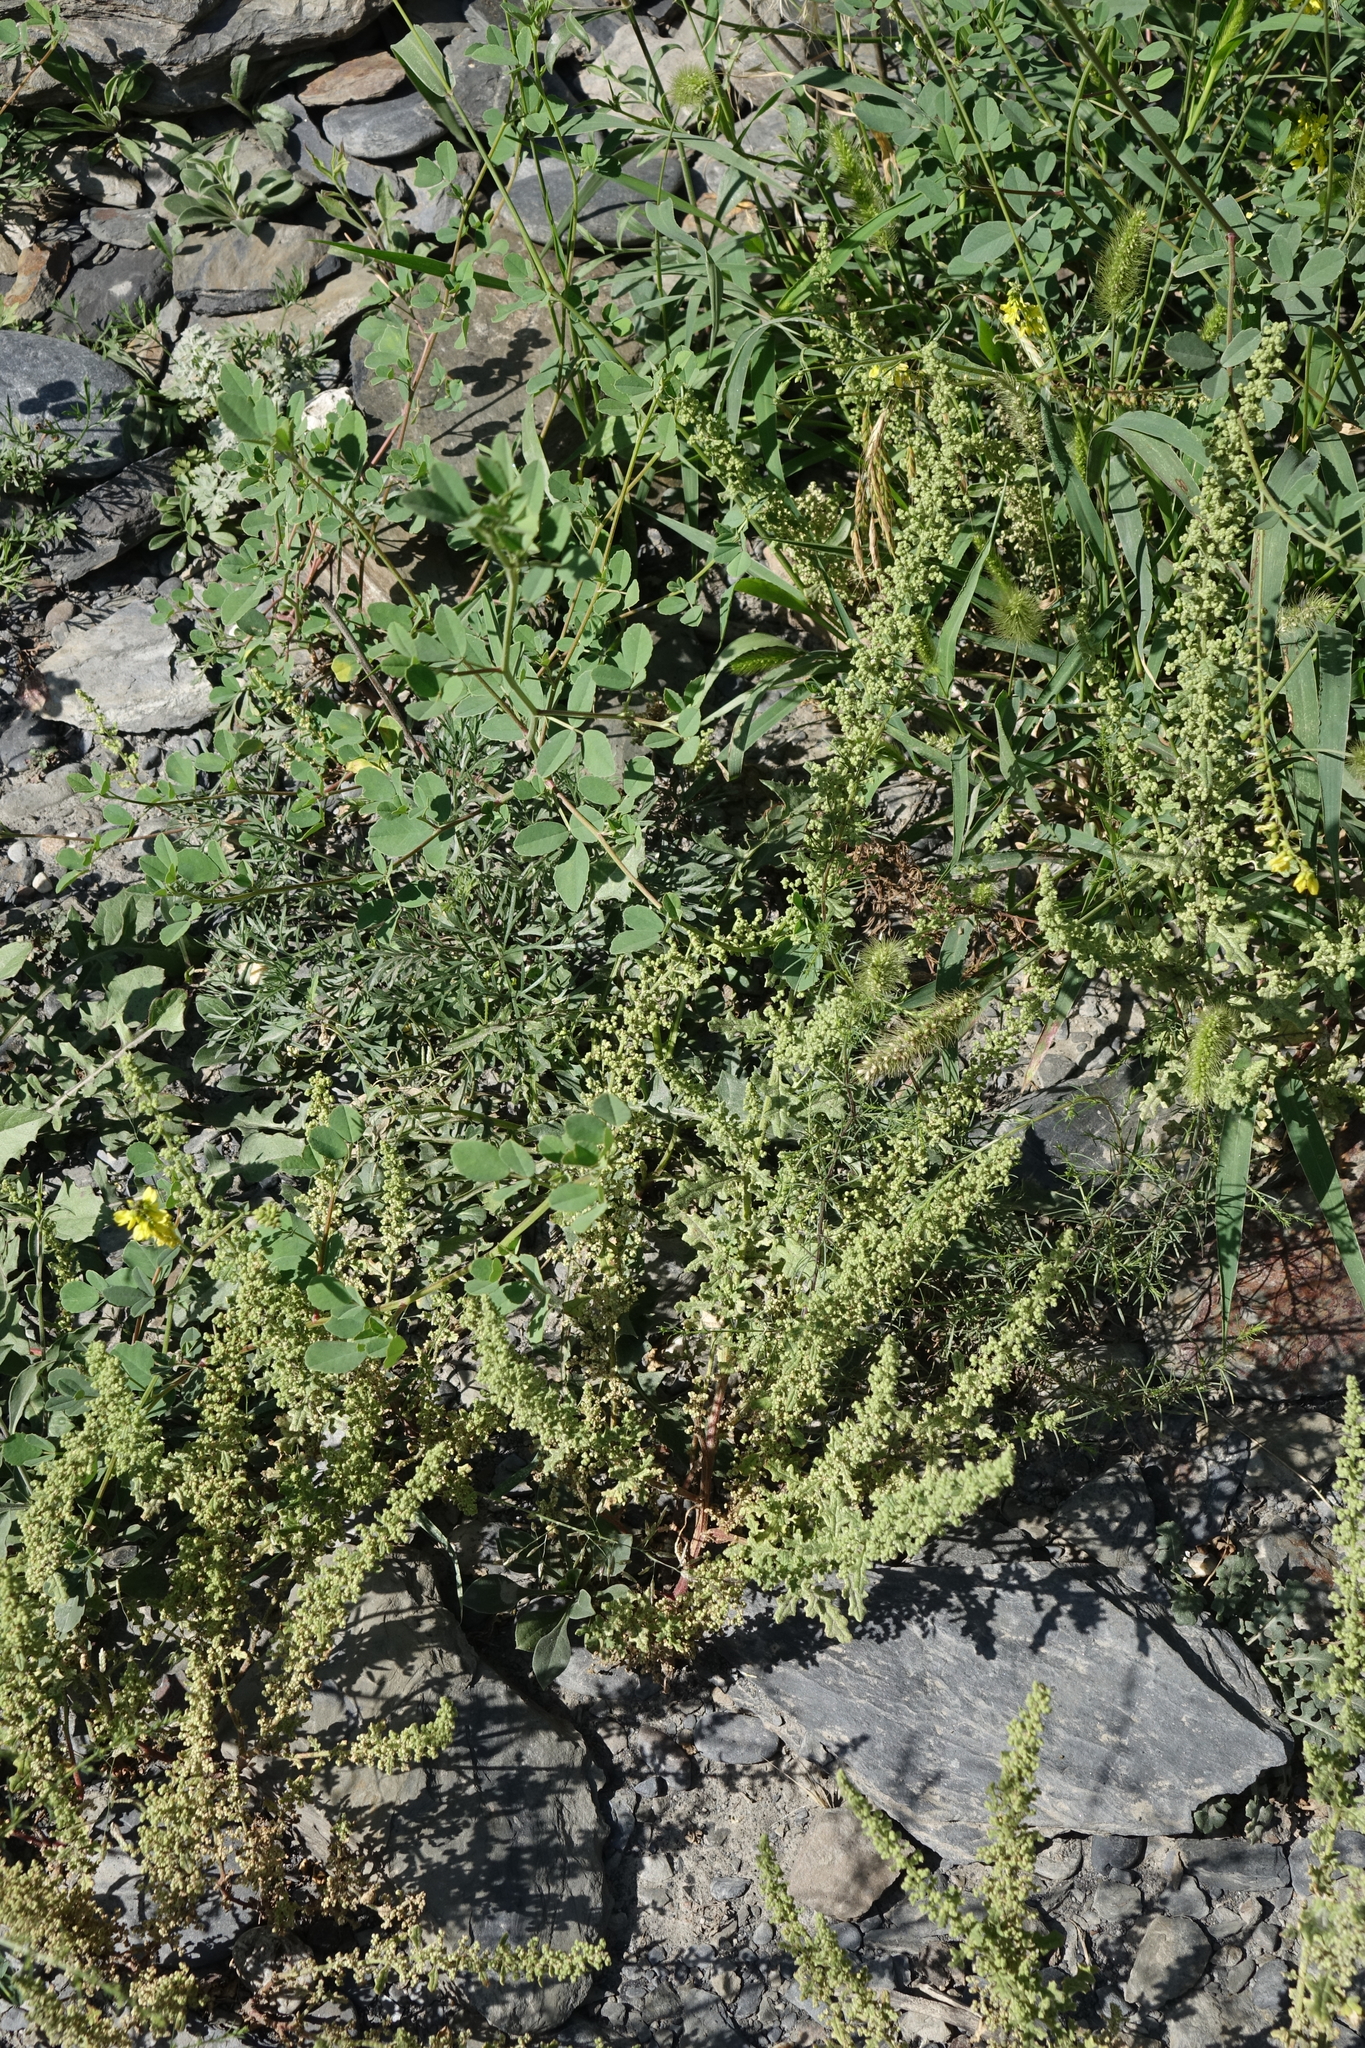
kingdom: Plantae
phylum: Tracheophyta
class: Magnoliopsida
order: Caryophyllales
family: Amaranthaceae
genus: Dysphania
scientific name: Dysphania botrys
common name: Feather-geranium
